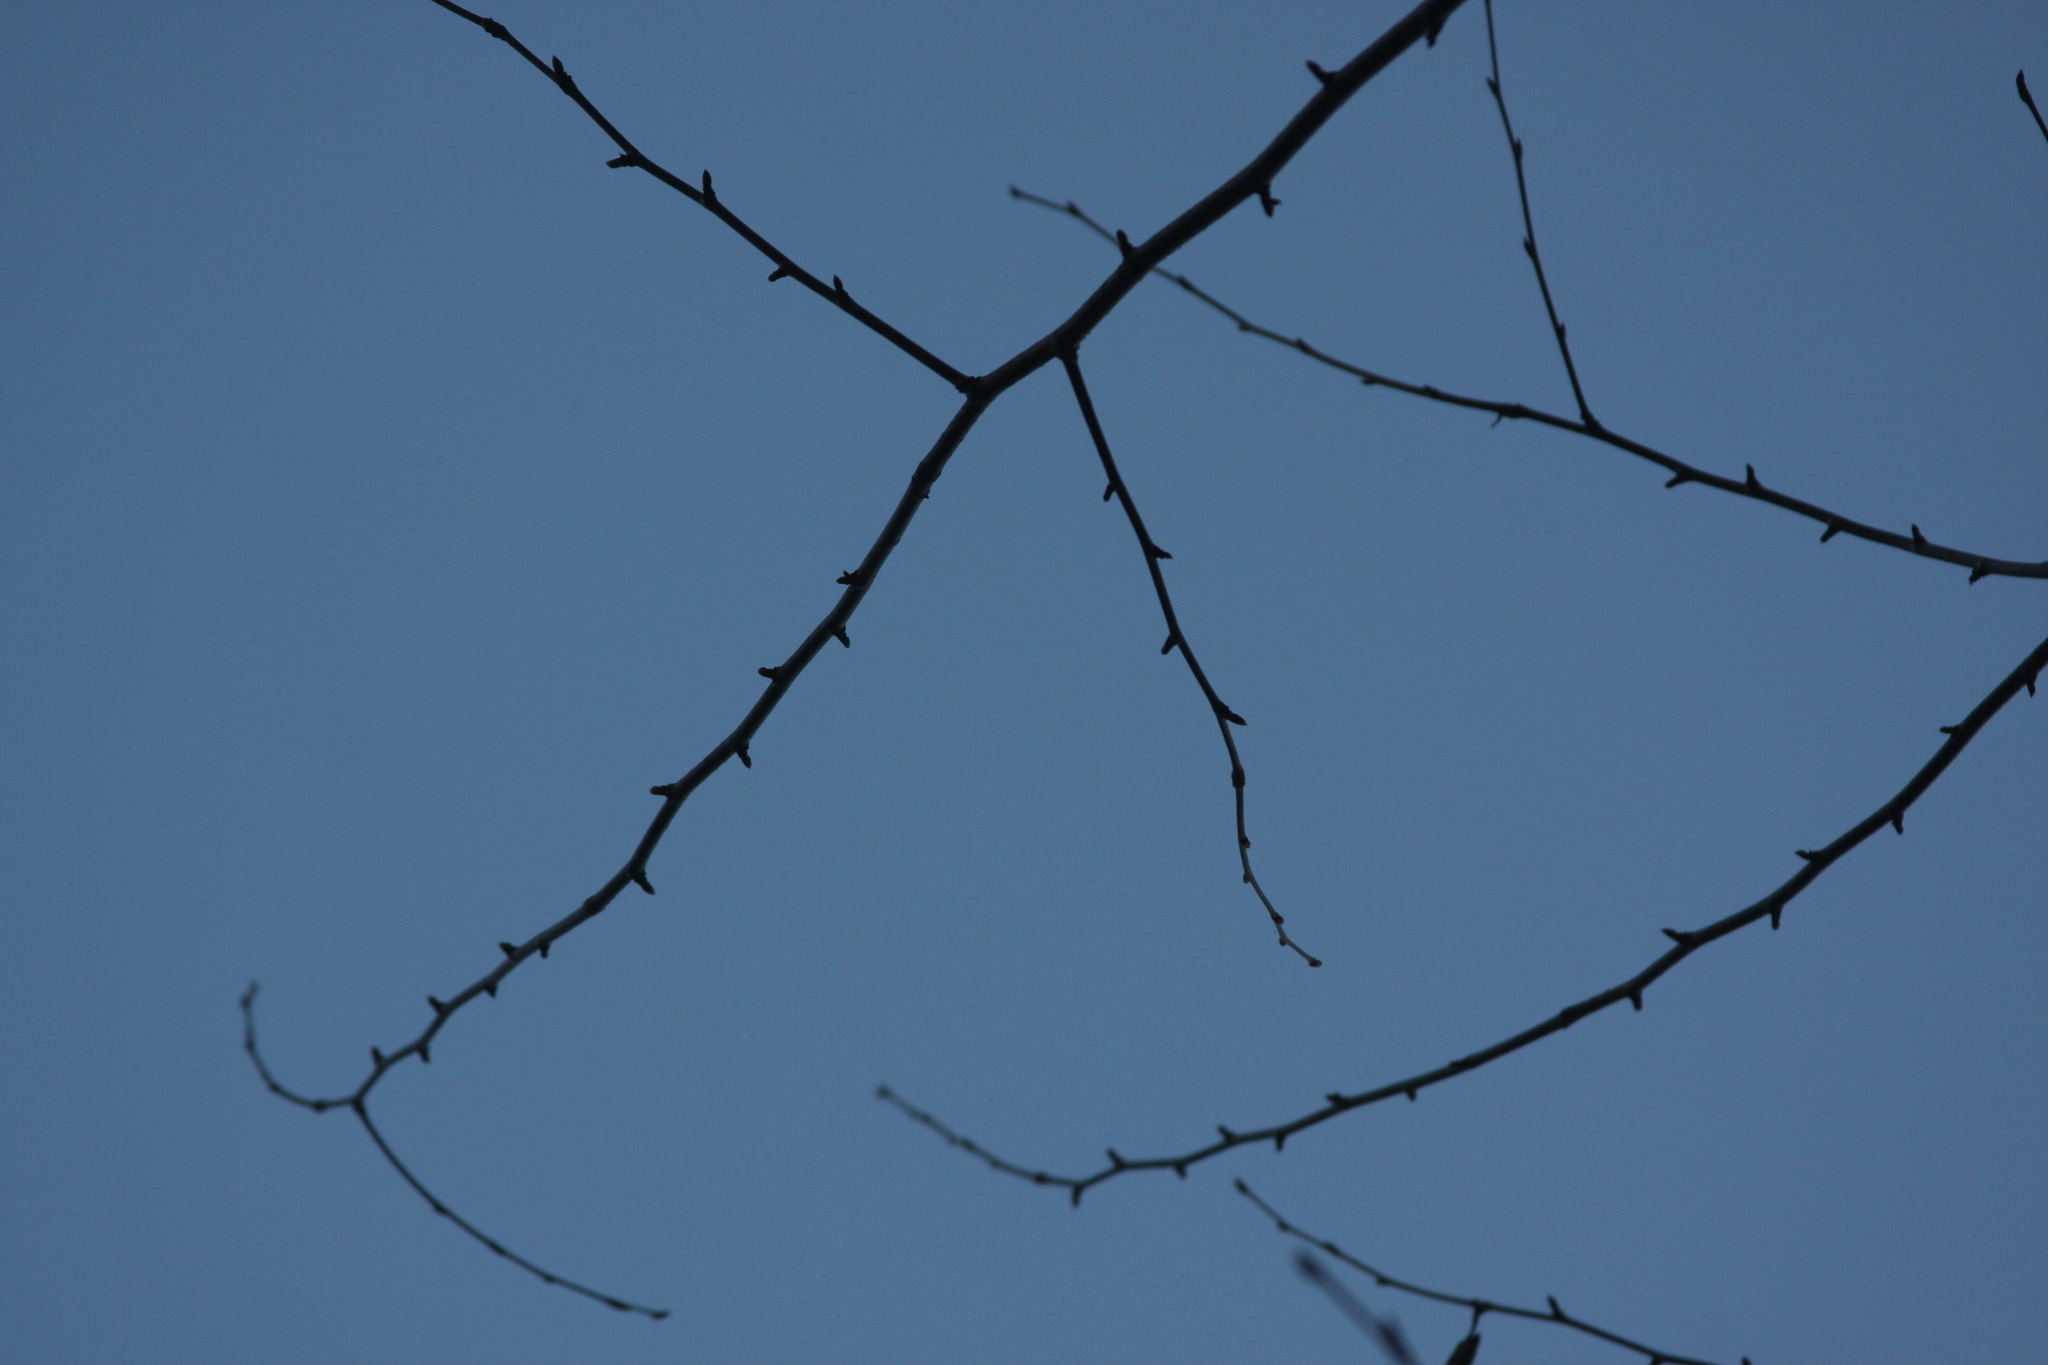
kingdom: Plantae
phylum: Tracheophyta
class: Magnoliopsida
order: Fagales
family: Betulaceae
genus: Betula
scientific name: Betula alleghaniensis
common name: Yellow birch
